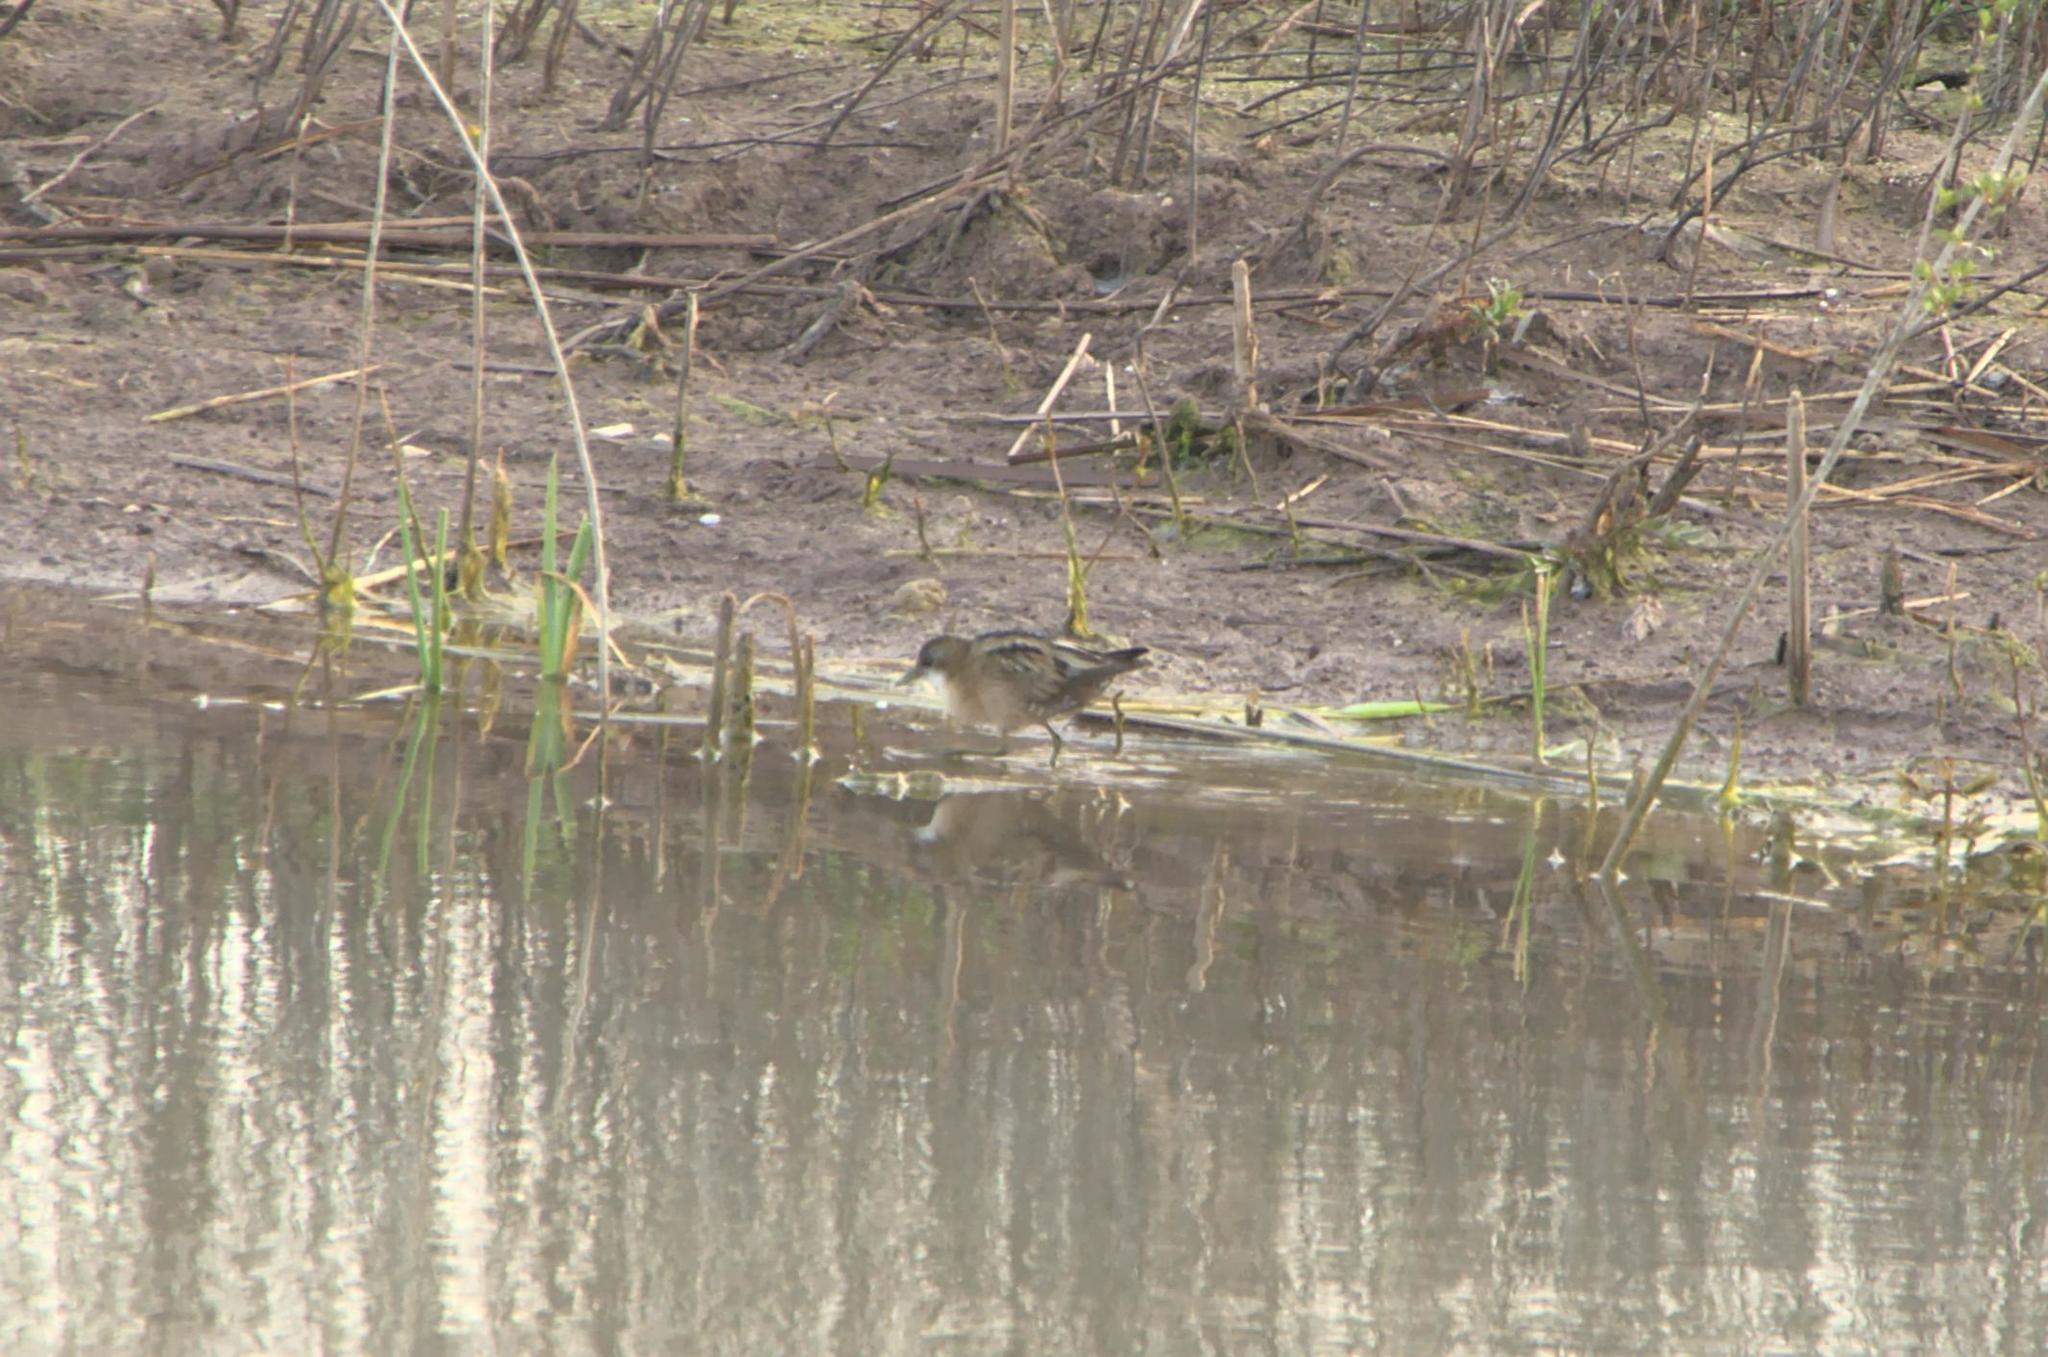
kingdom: Animalia
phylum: Chordata
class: Aves
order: Gruiformes
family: Rallidae
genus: Porzana
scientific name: Porzana parva
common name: Little crake
